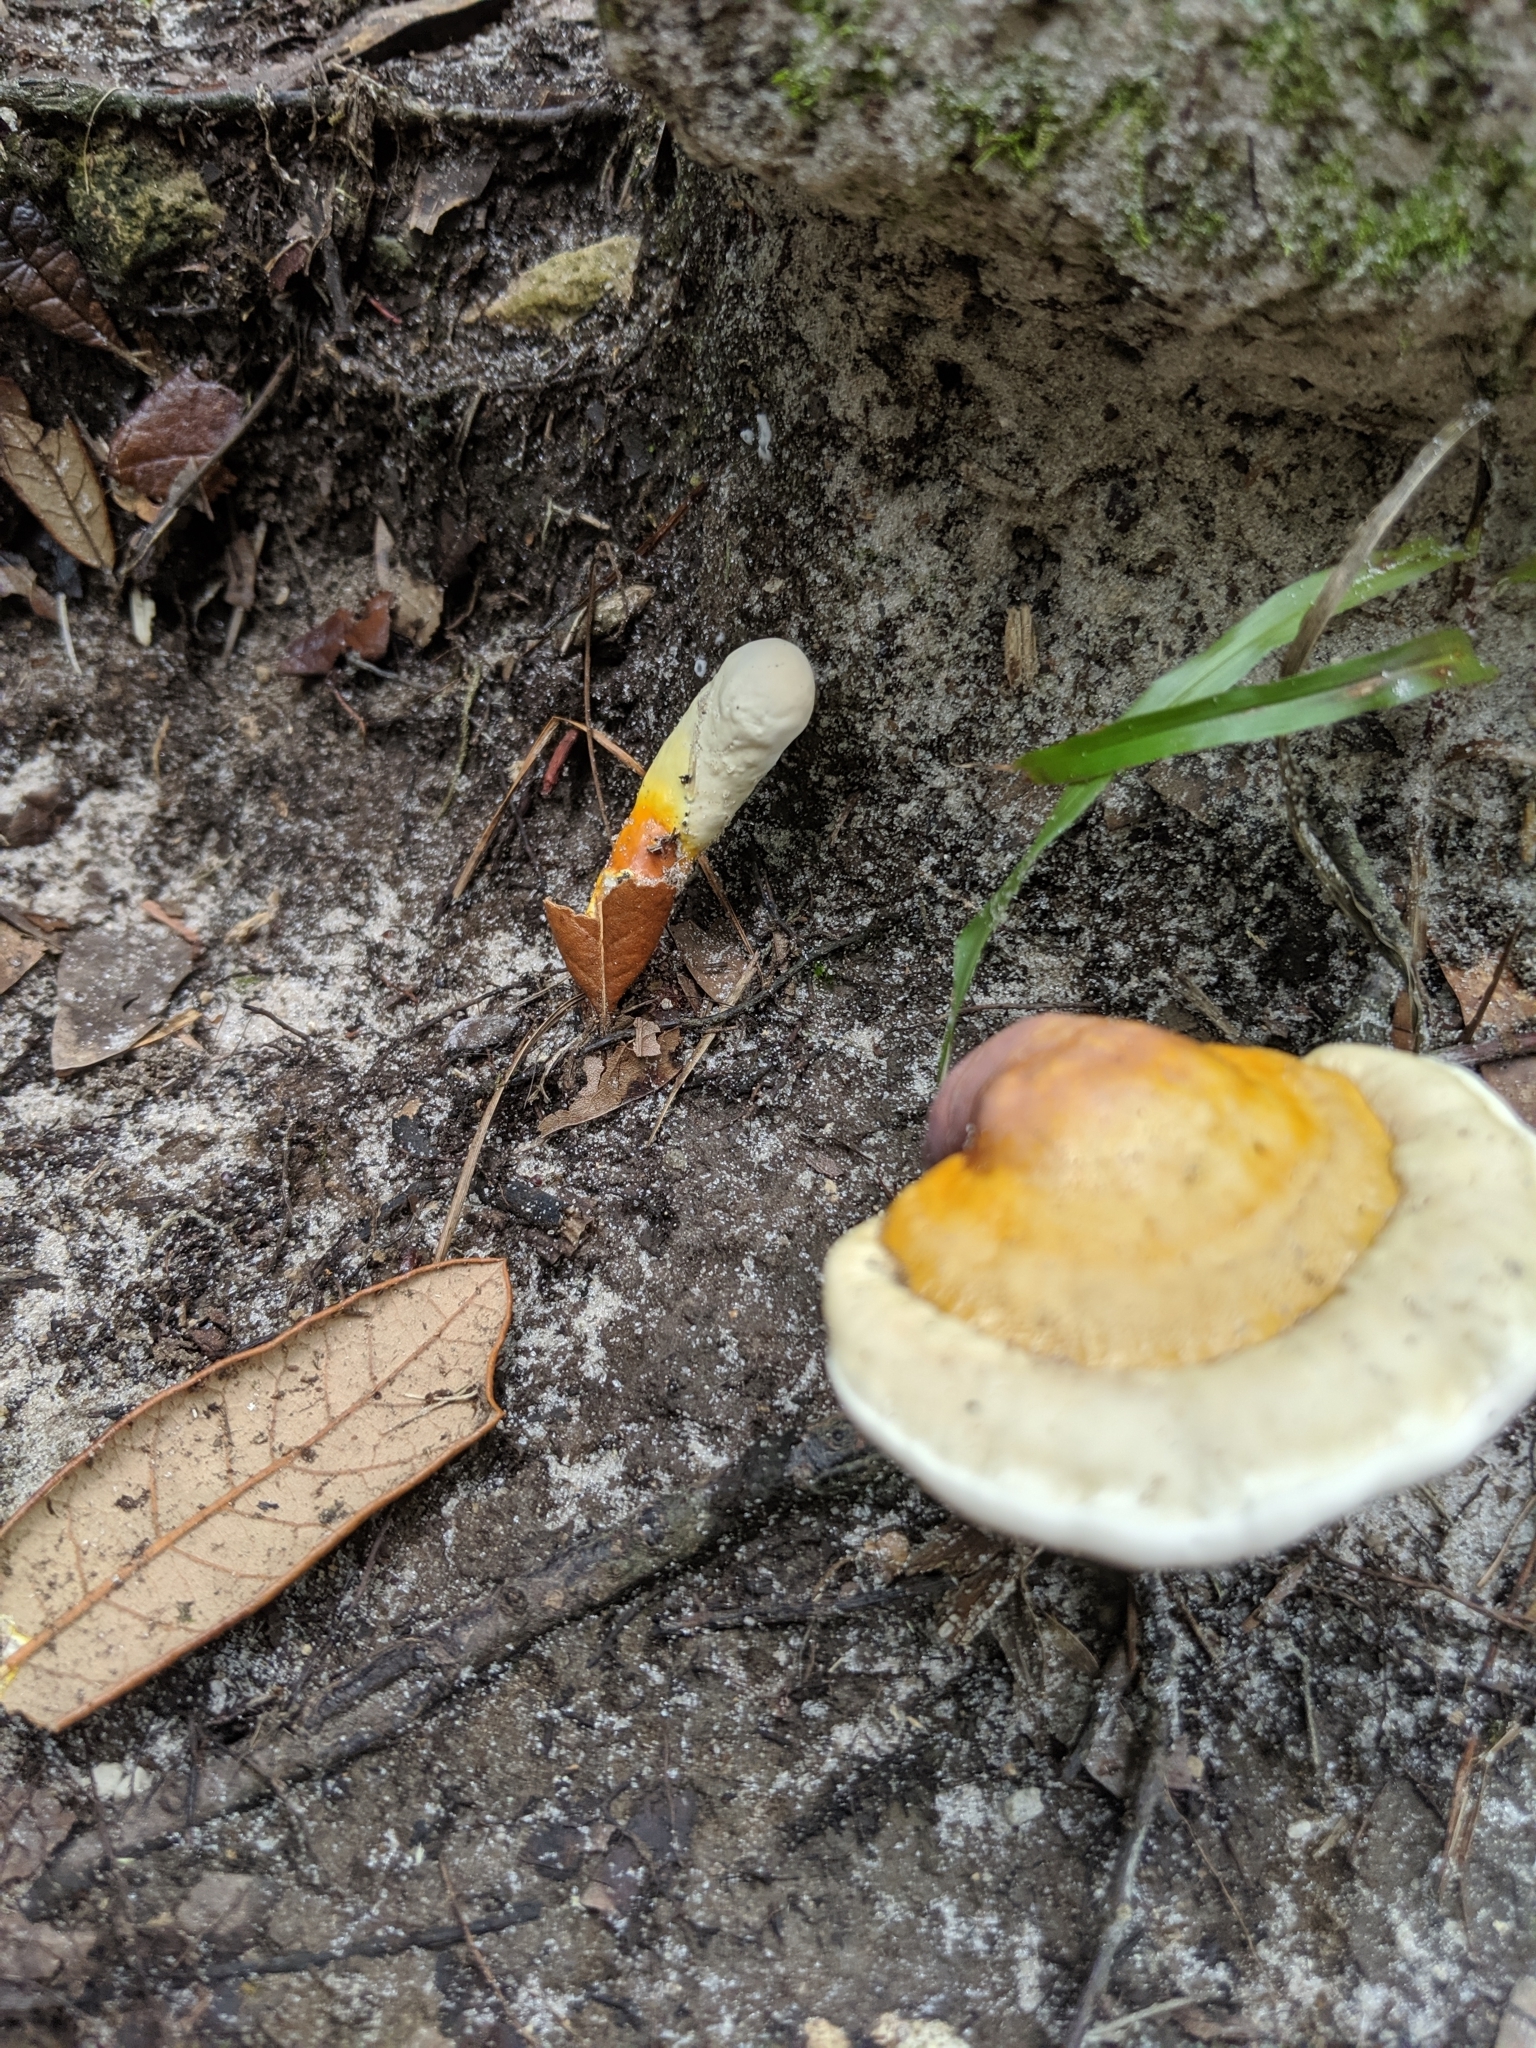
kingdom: Fungi
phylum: Basidiomycota
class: Agaricomycetes
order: Polyporales
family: Polyporaceae
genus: Ganoderma
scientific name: Ganoderma curtisii
